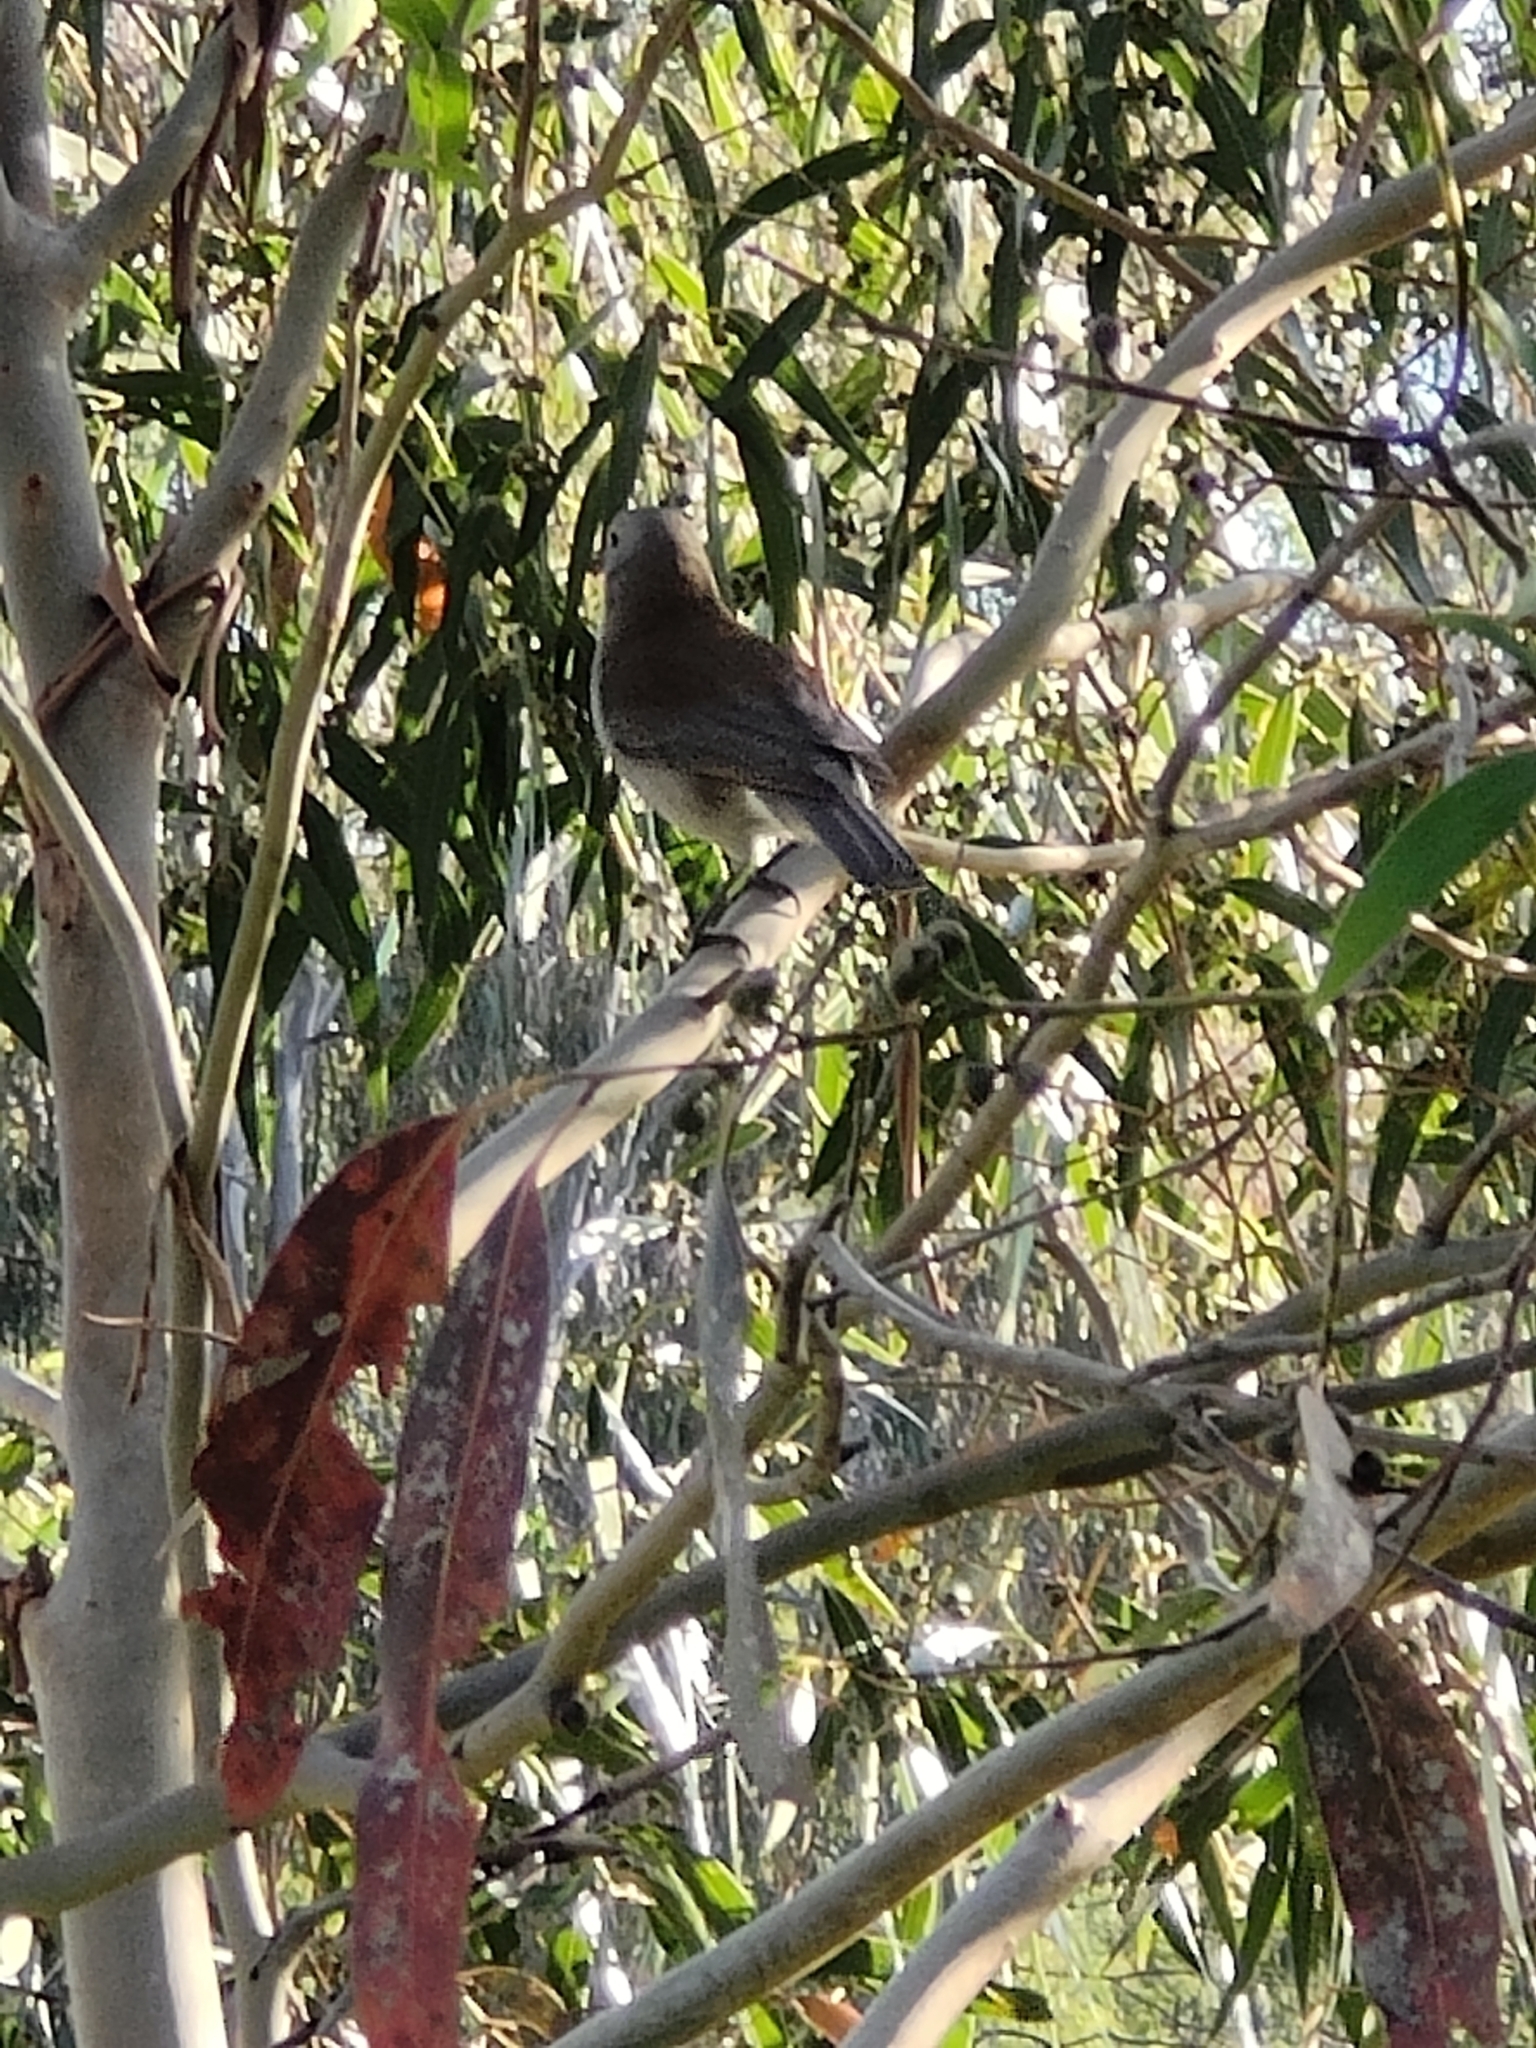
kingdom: Animalia
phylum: Chordata
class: Aves
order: Passeriformes
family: Pachycephalidae
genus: Colluricincla
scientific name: Colluricincla harmonica
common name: Grey shrikethrush
